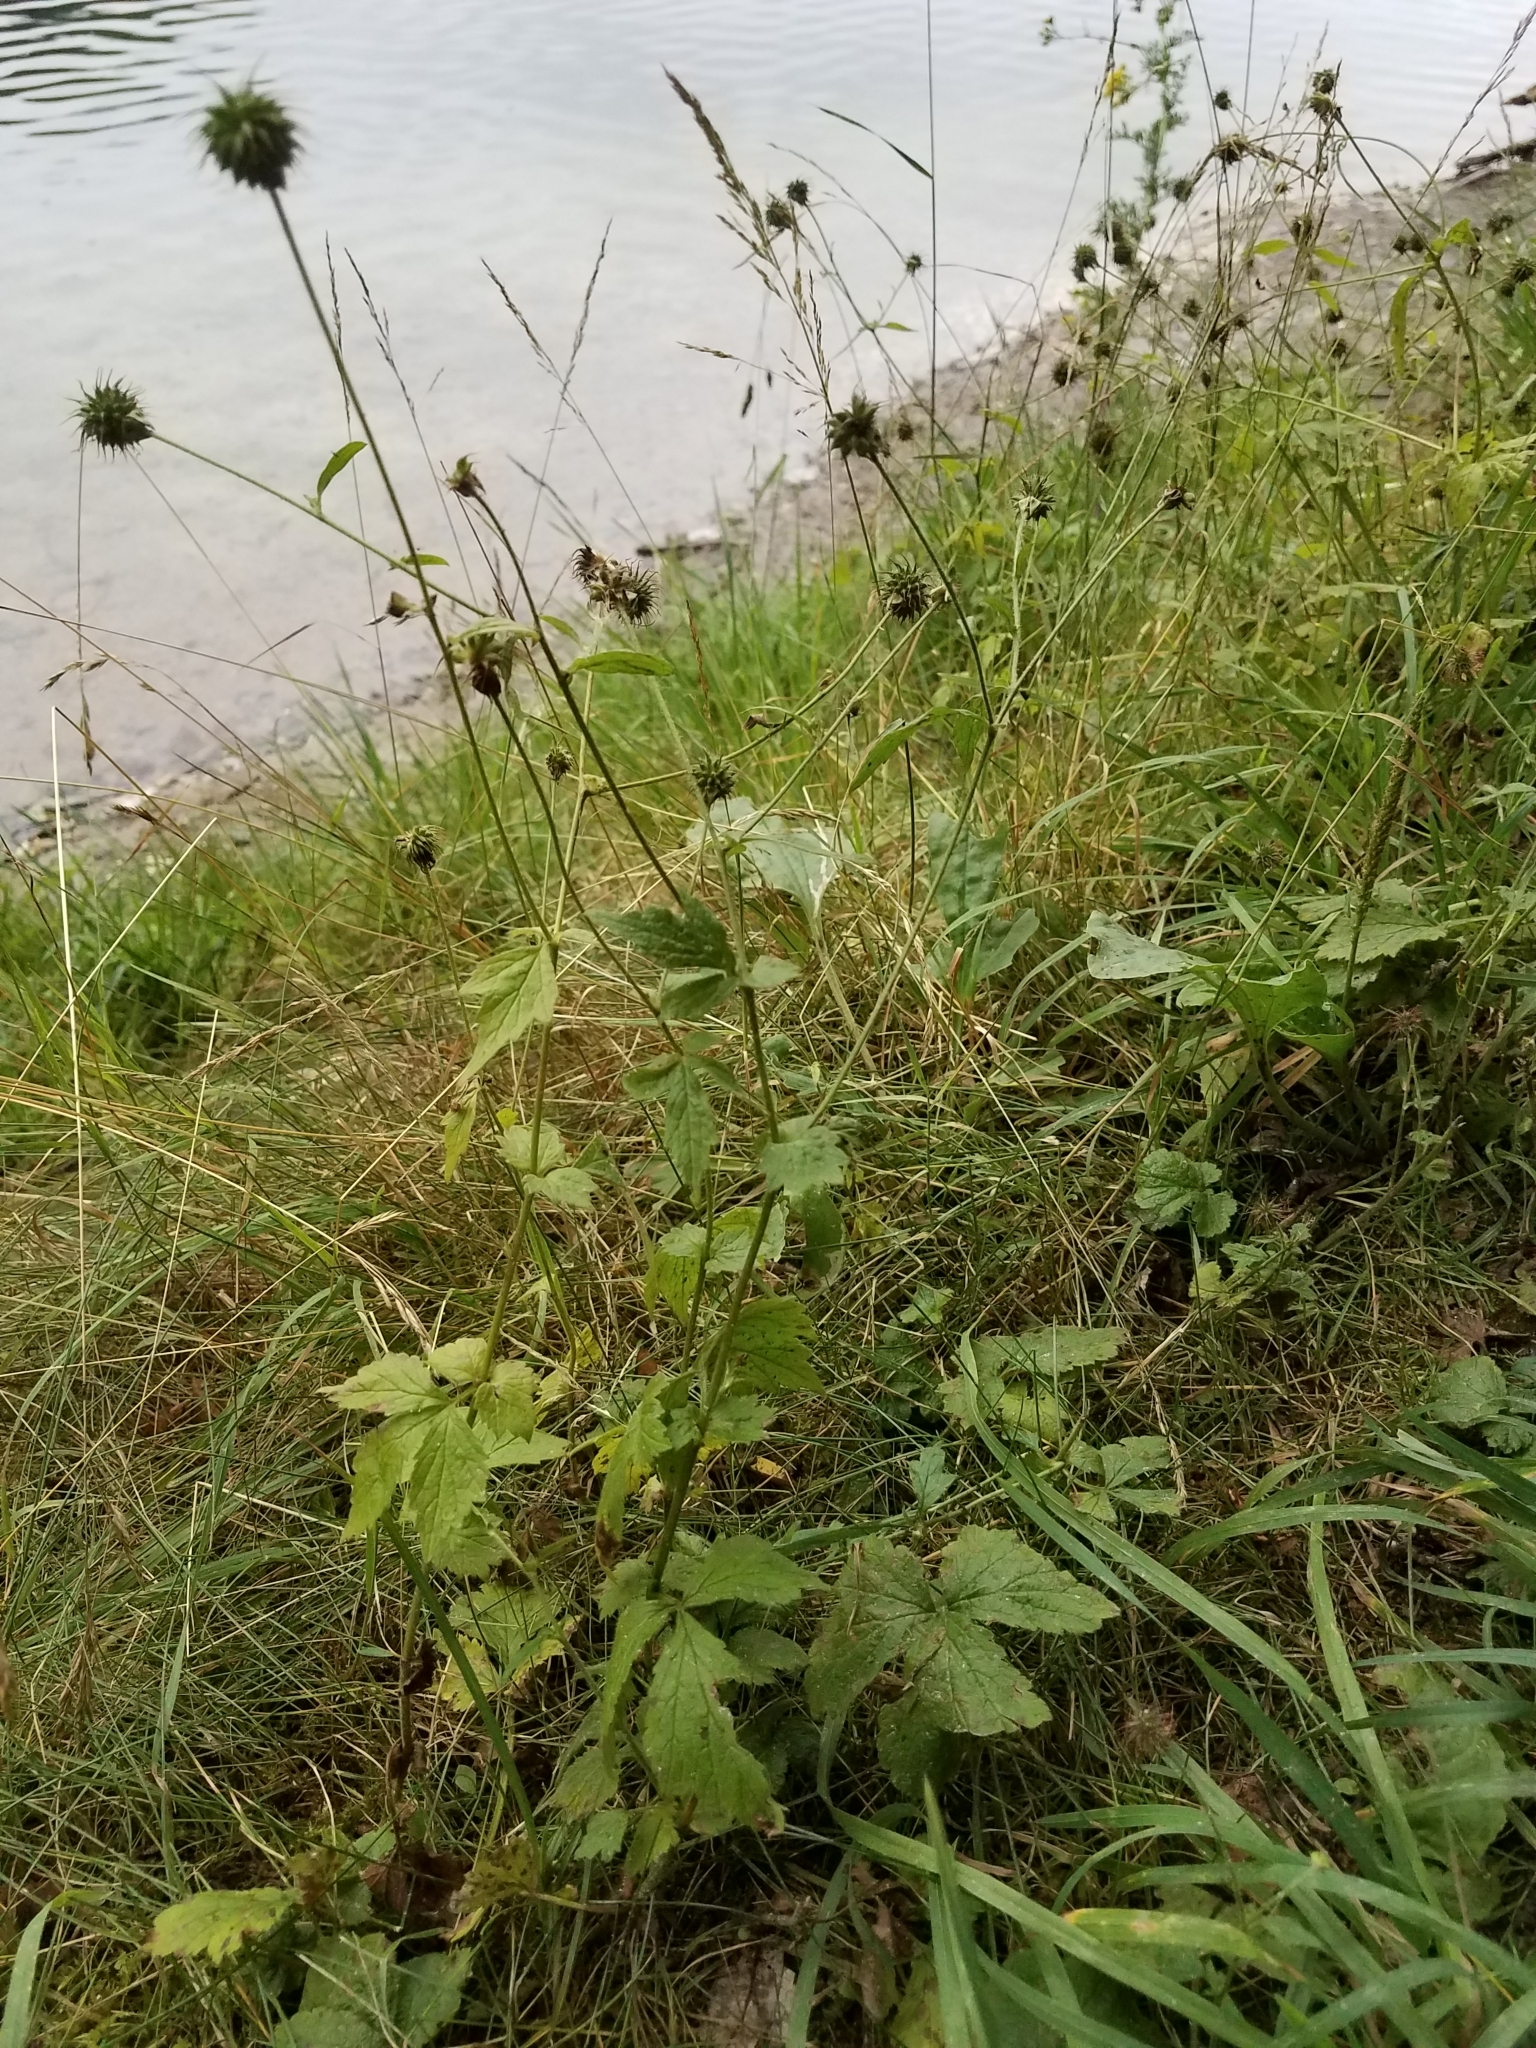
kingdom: Plantae
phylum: Tracheophyta
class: Magnoliopsida
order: Rosales
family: Rosaceae
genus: Geum
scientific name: Geum urbanum
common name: Wood avens
